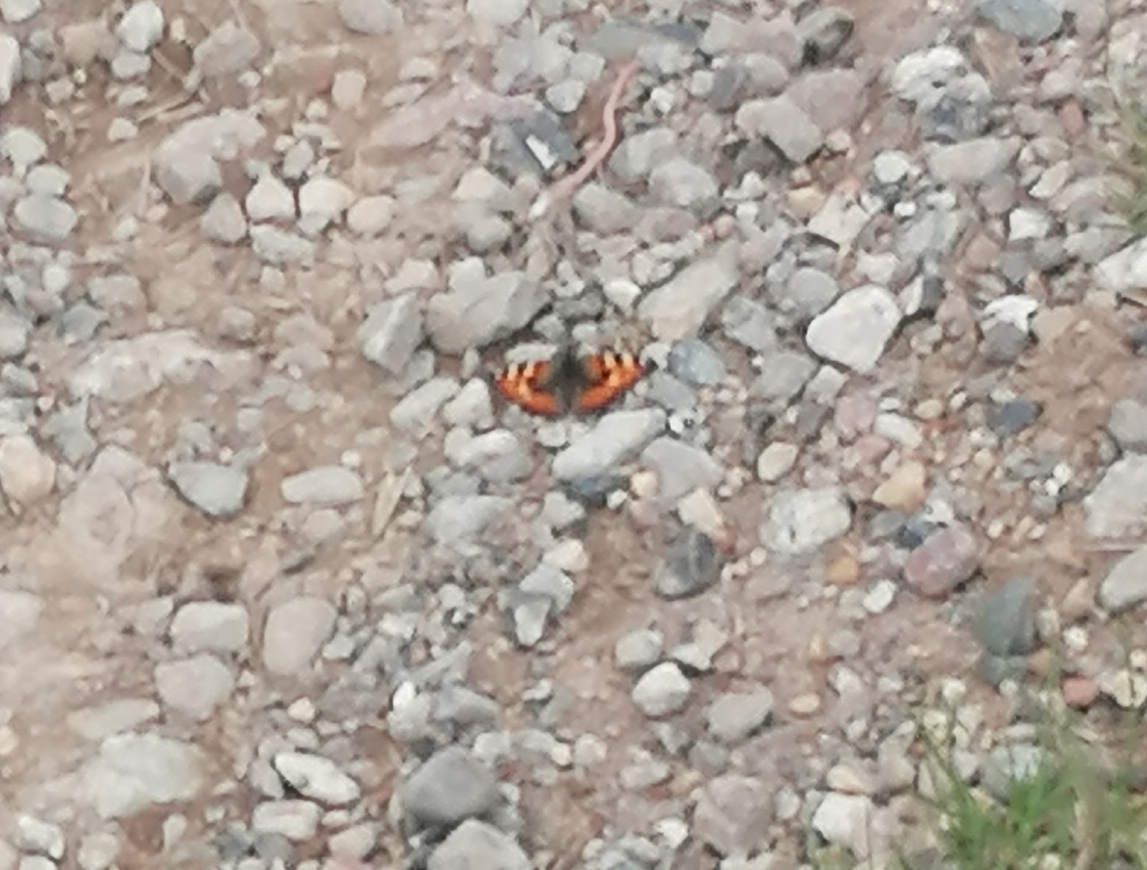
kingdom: Animalia
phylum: Arthropoda
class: Insecta
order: Lepidoptera
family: Nymphalidae
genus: Aglais
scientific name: Aglais urticae
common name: Small tortoiseshell
